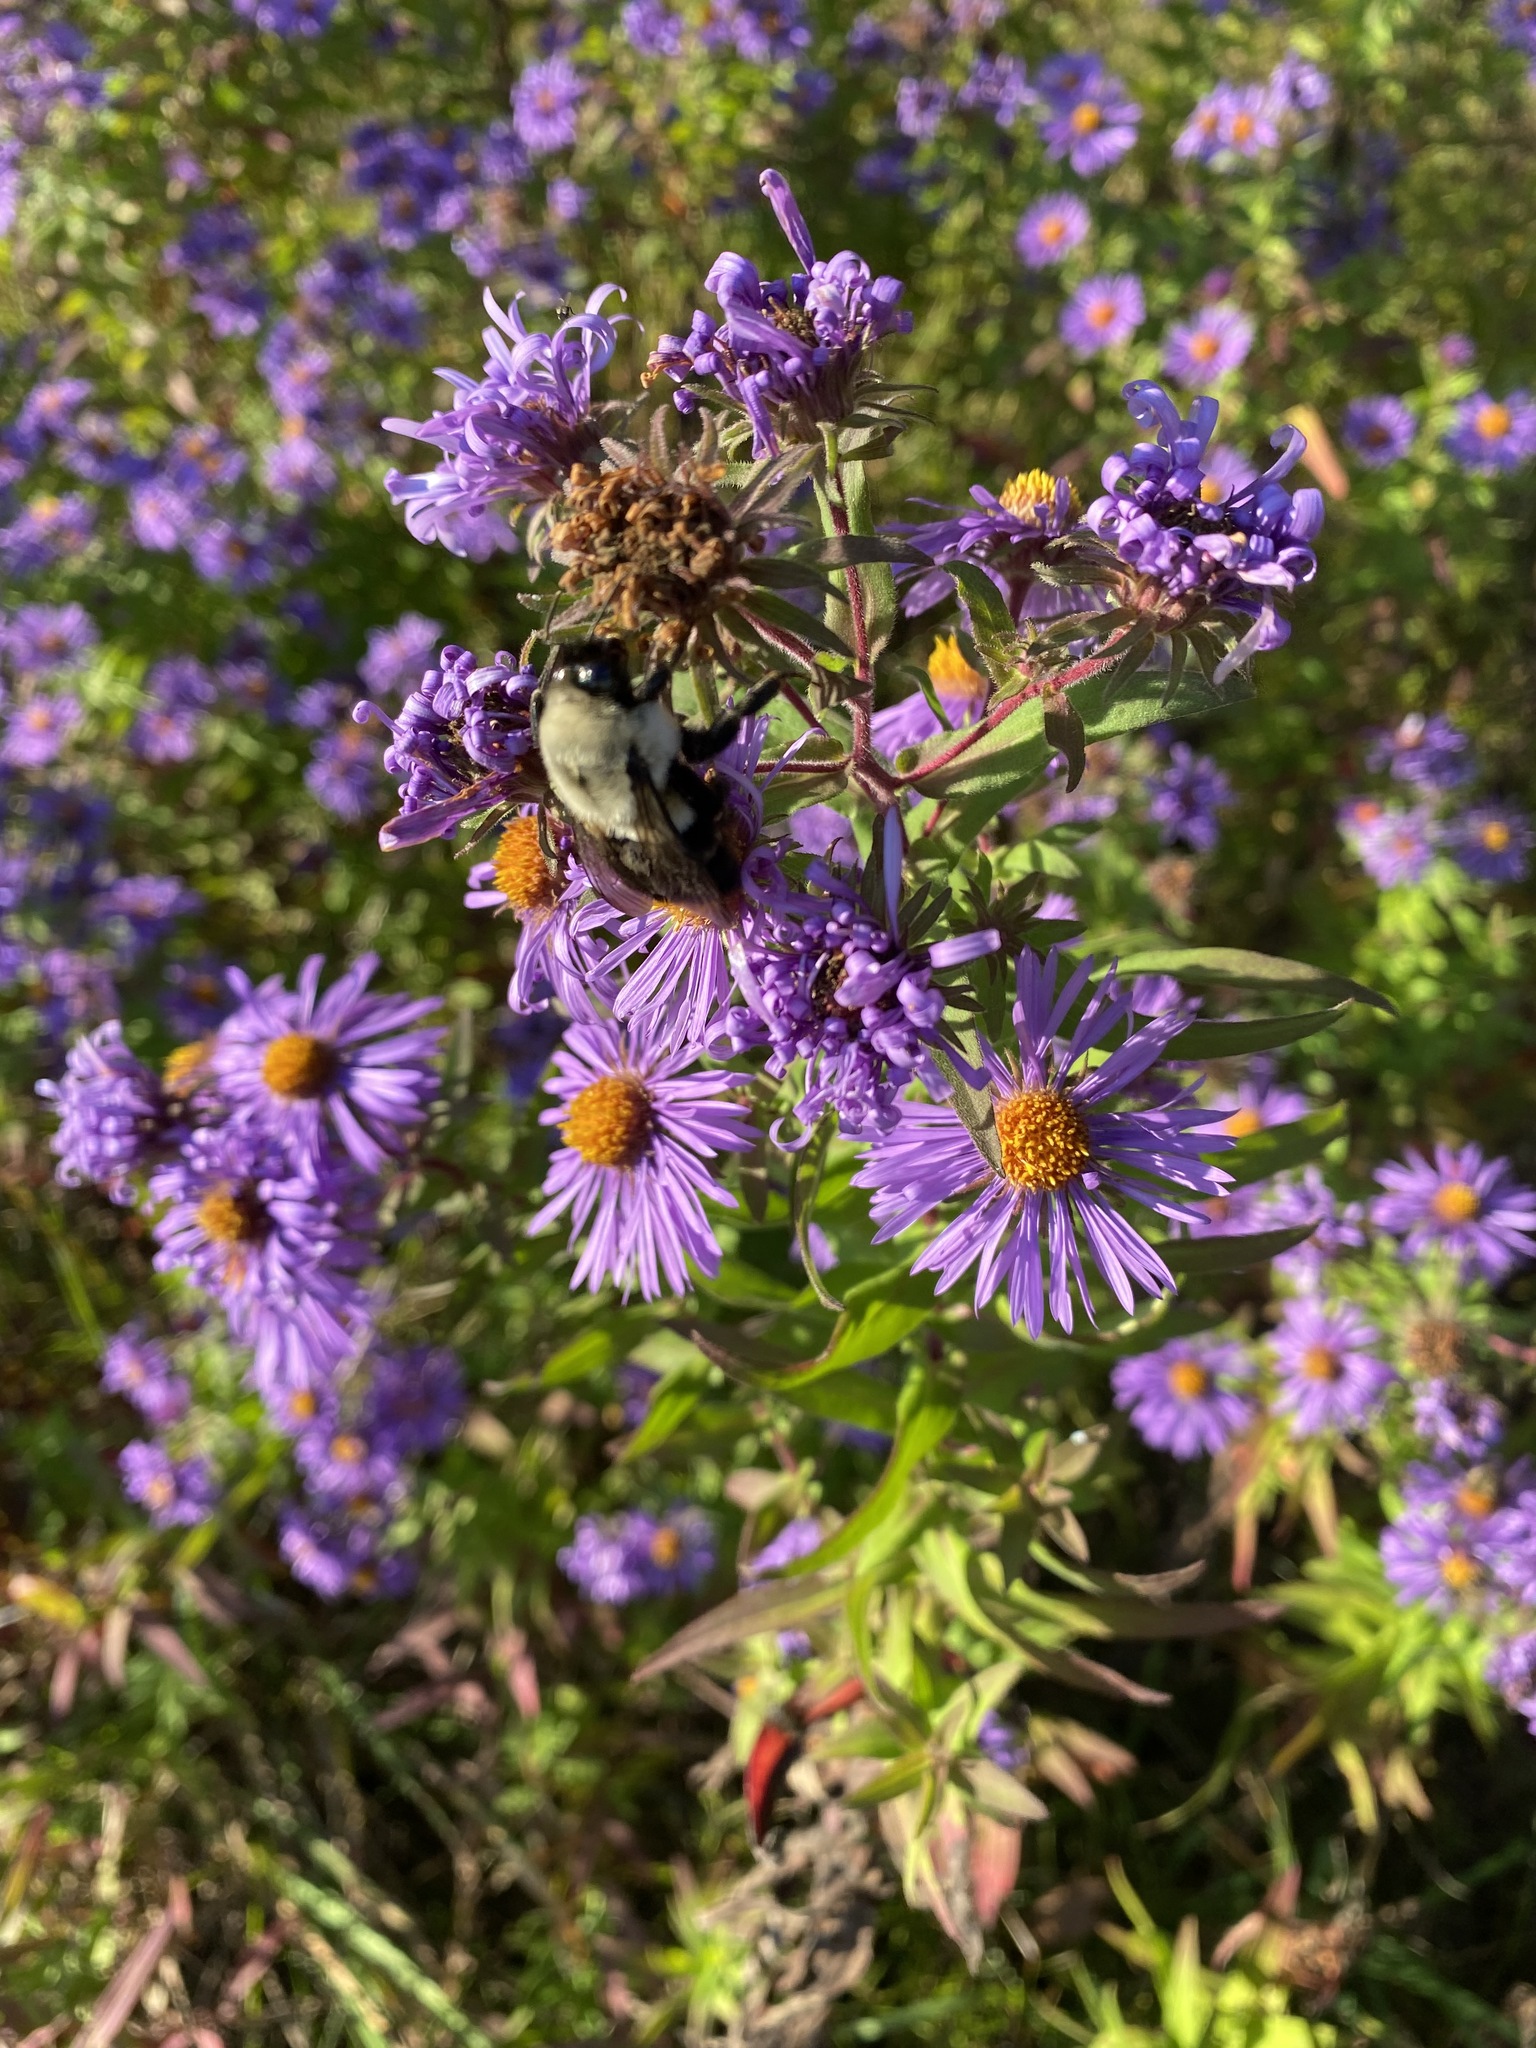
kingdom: Animalia
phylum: Arthropoda
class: Insecta
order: Hymenoptera
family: Apidae
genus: Bombus
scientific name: Bombus impatiens
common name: Common eastern bumble bee
